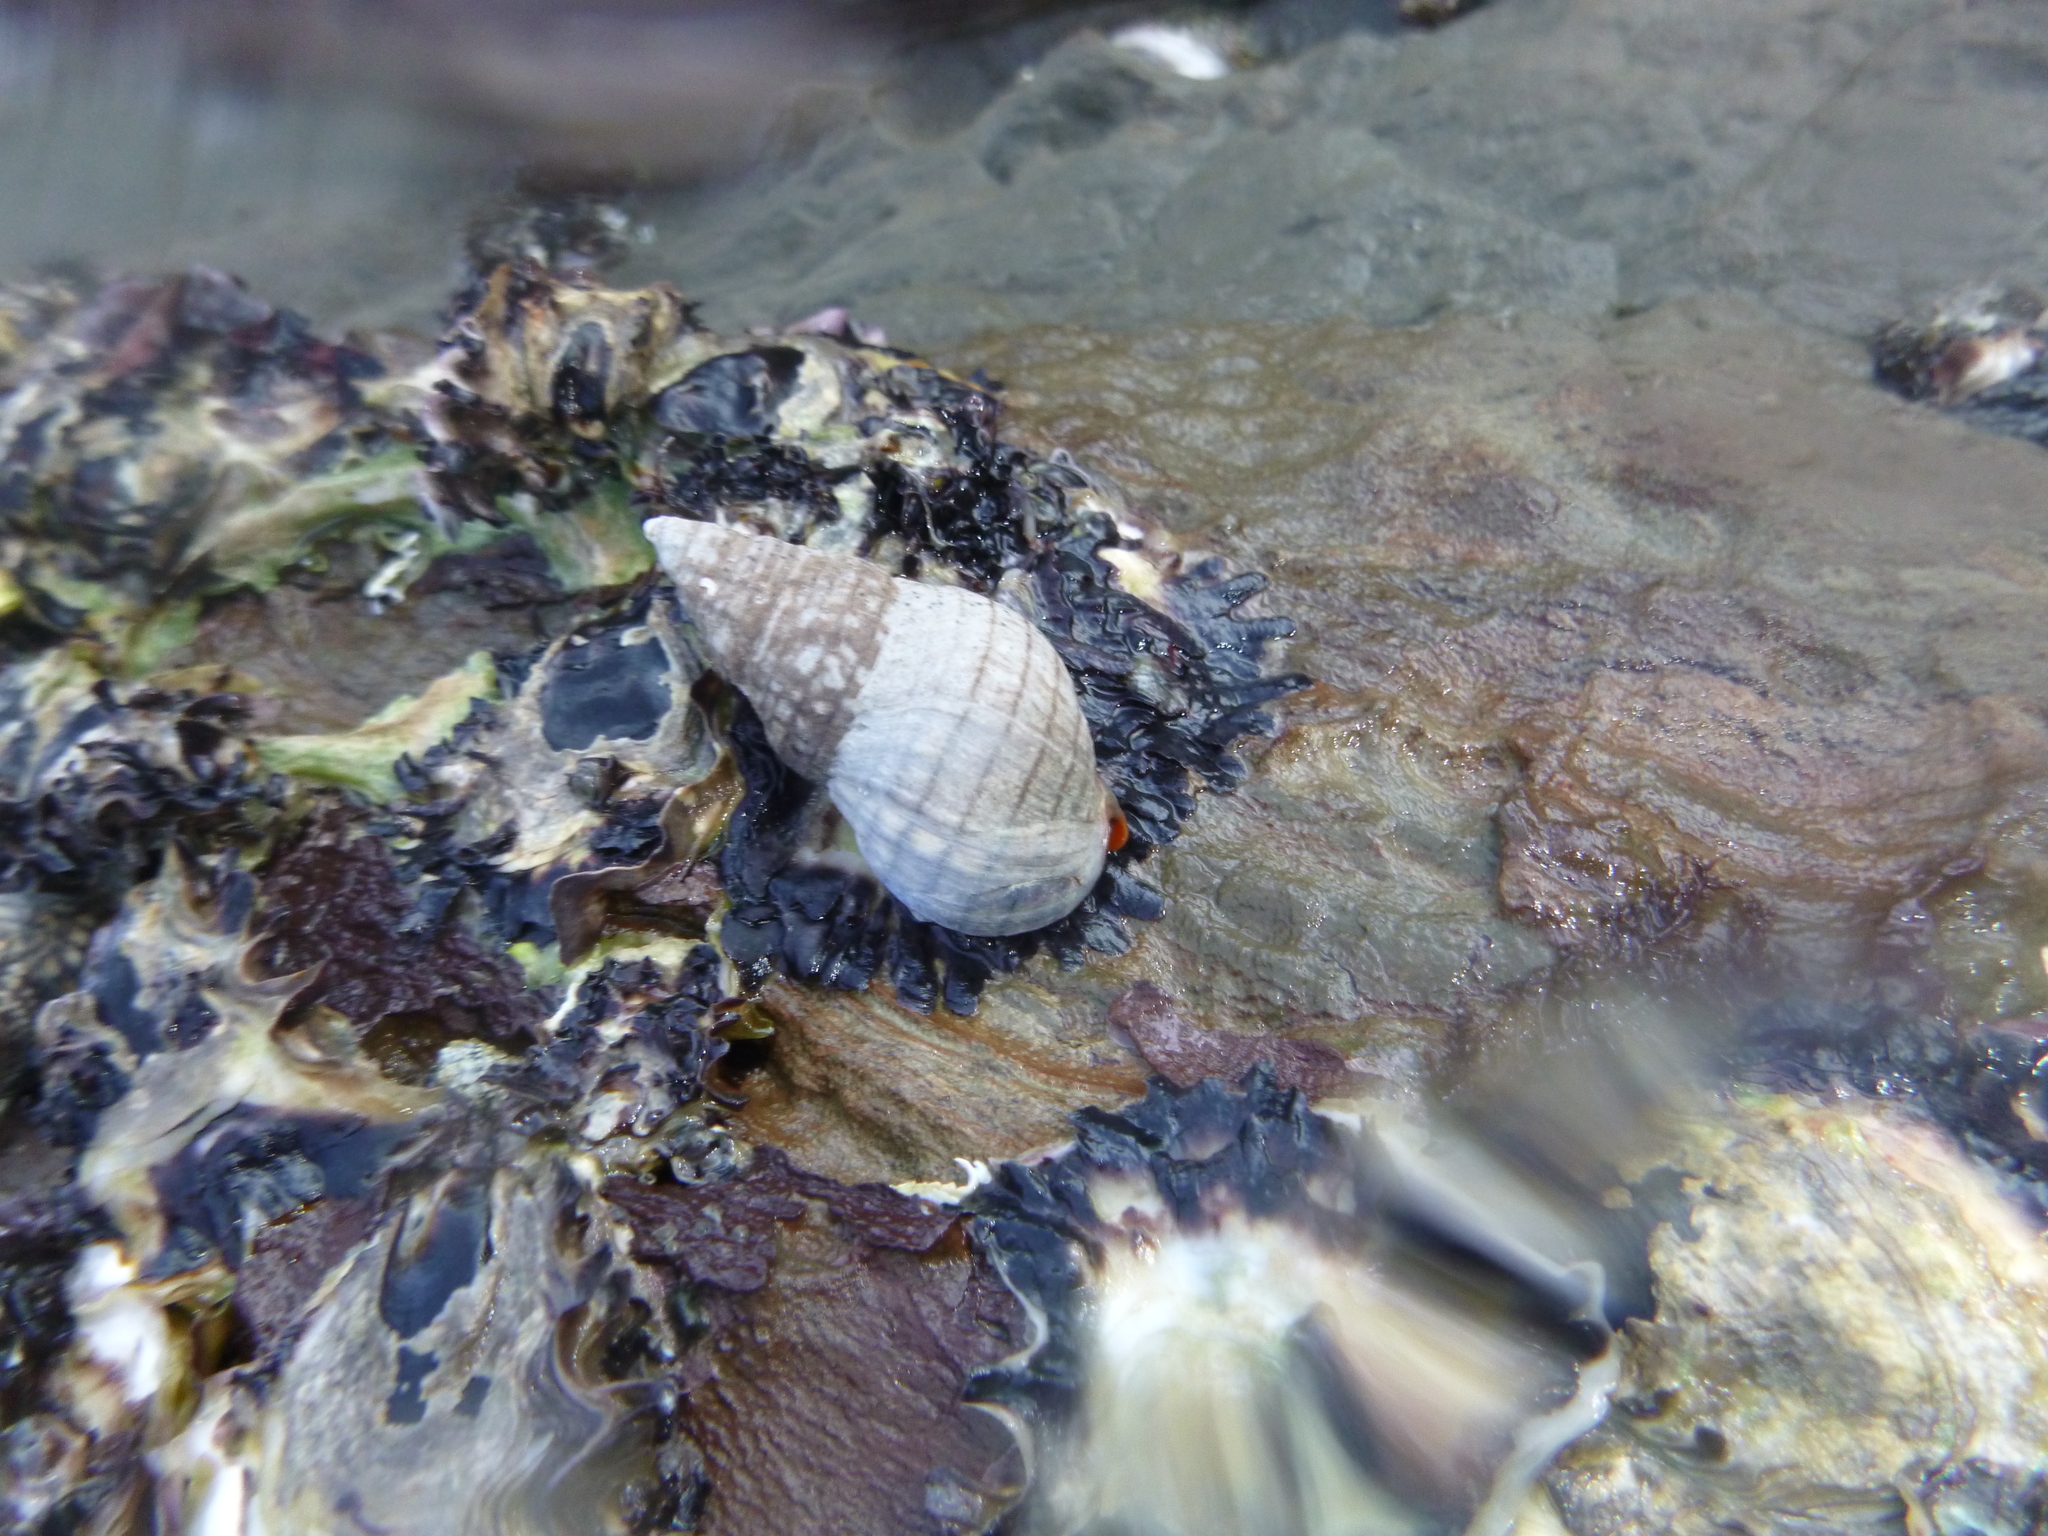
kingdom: Animalia
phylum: Mollusca
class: Gastropoda
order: Neogastropoda
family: Cominellidae
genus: Cominella
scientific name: Cominella virgata
